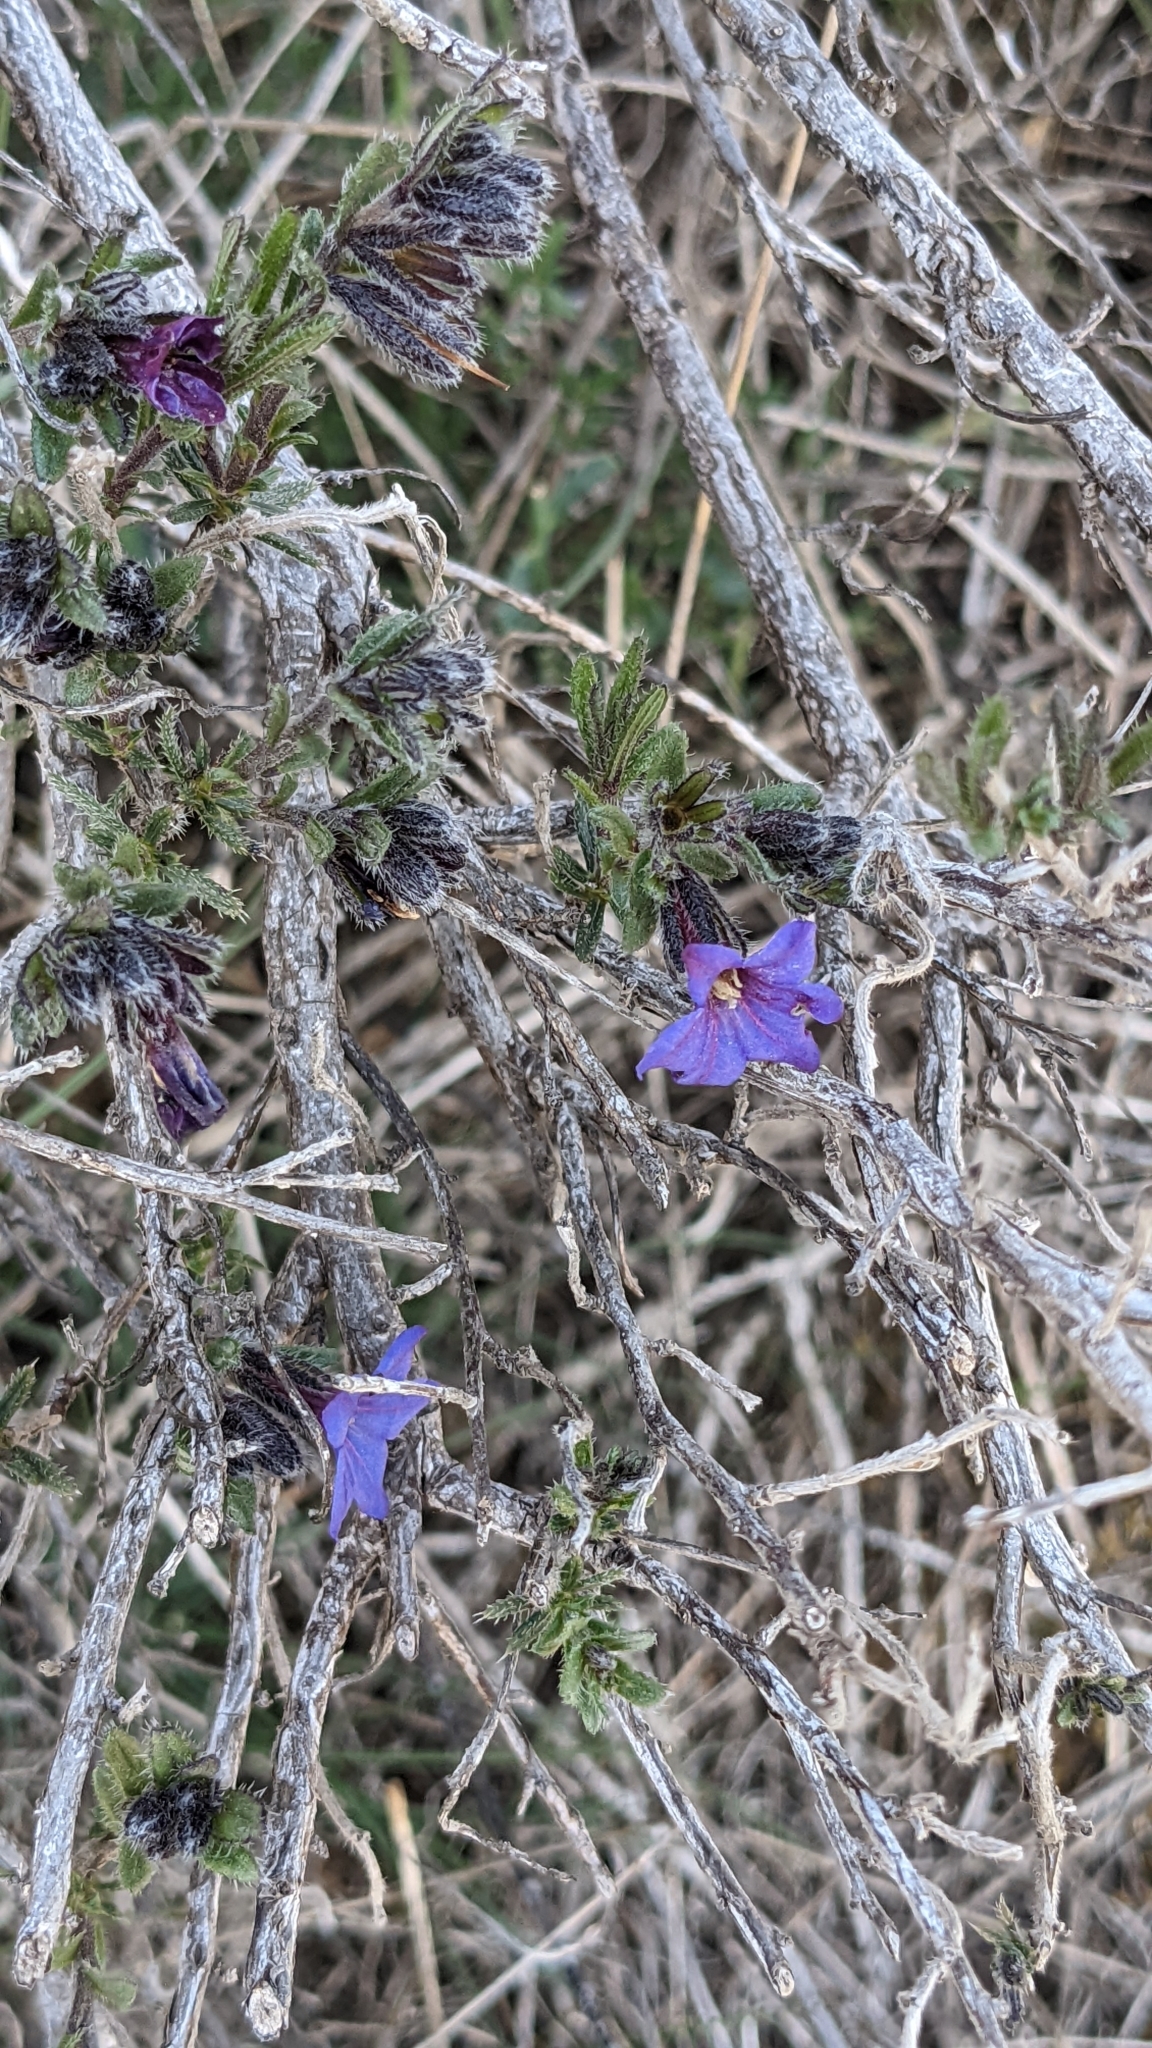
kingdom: Plantae
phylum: Tracheophyta
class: Magnoliopsida
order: Boraginales
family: Boraginaceae
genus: Lithodora
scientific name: Lithodora fruticosa
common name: Shrubby gromwell
